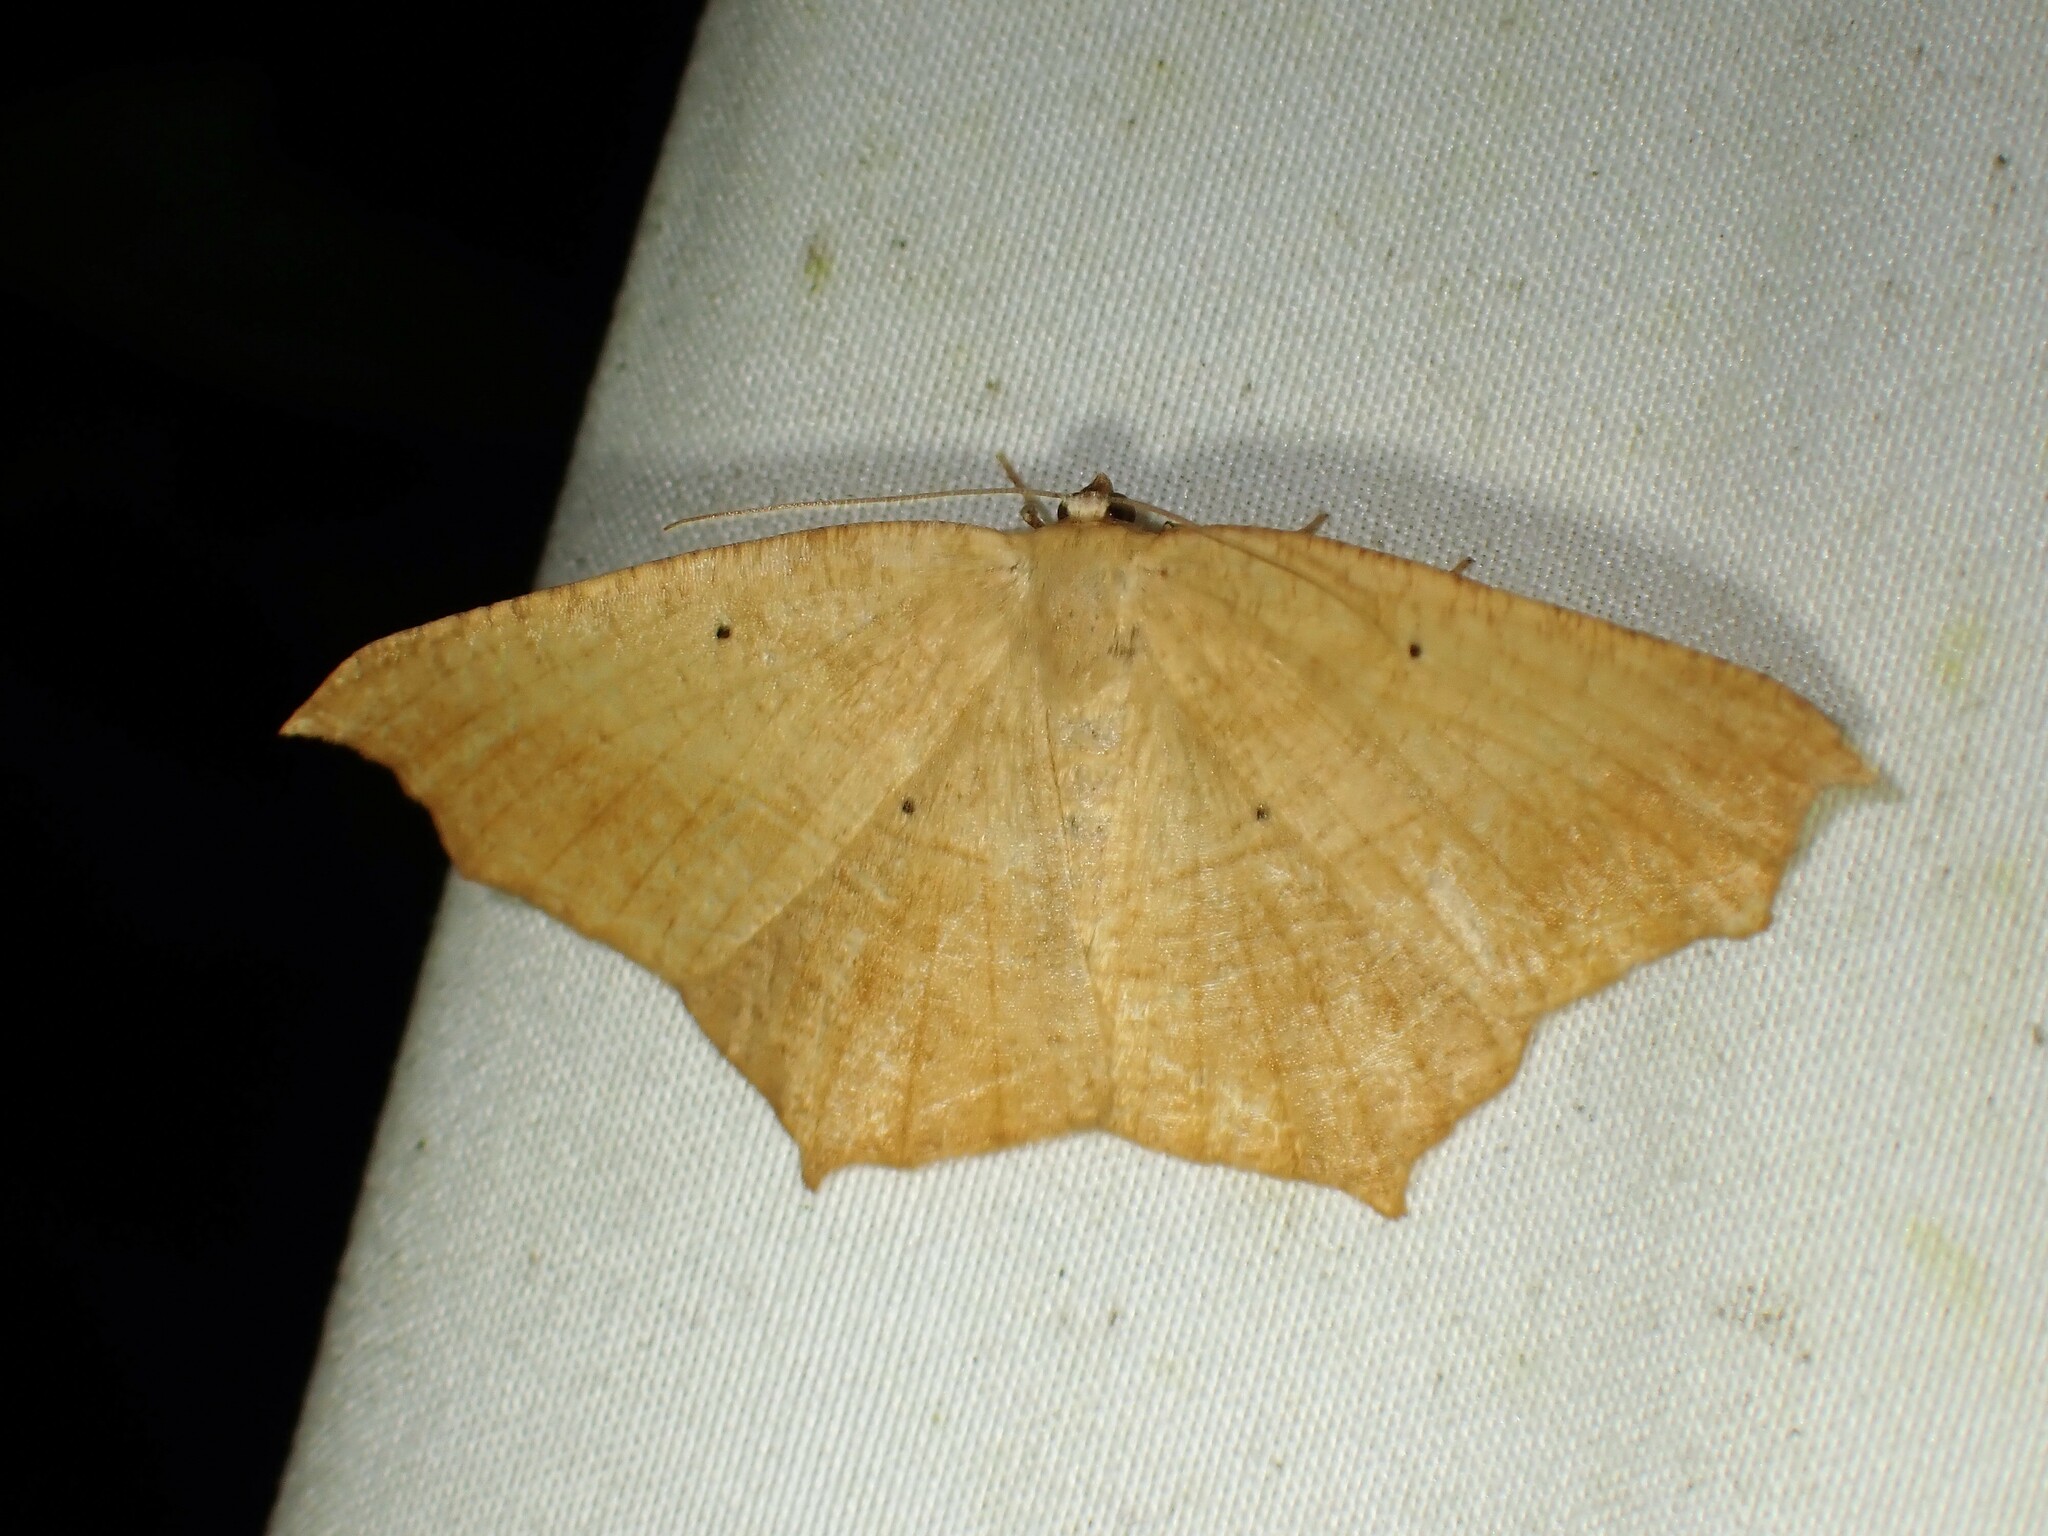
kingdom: Animalia
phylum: Arthropoda
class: Insecta
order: Lepidoptera
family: Geometridae
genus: Prochoerodes
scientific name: Prochoerodes lineola
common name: Large maple spanworm
